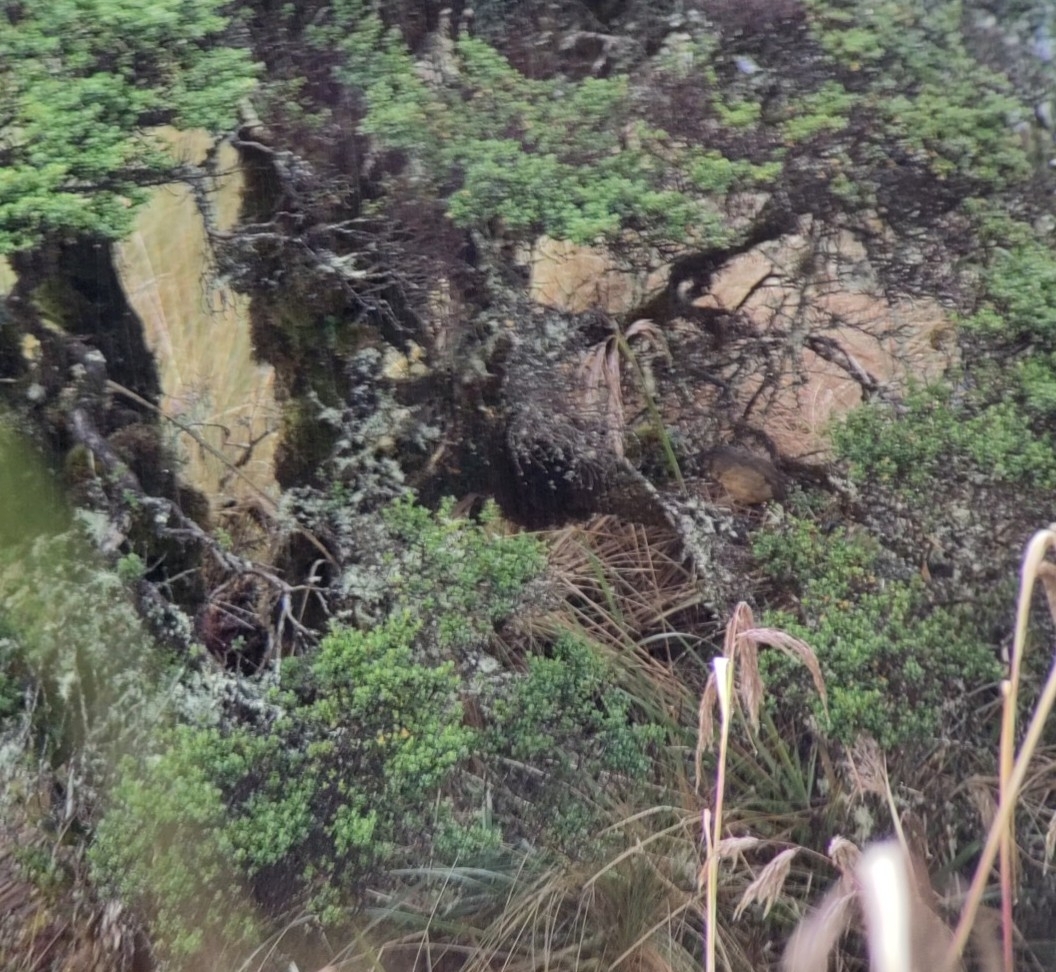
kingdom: Animalia
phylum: Chordata
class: Aves
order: Passeriformes
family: Grallariidae
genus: Grallaria
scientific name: Grallaria quitensis
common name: Tawny antpitta
